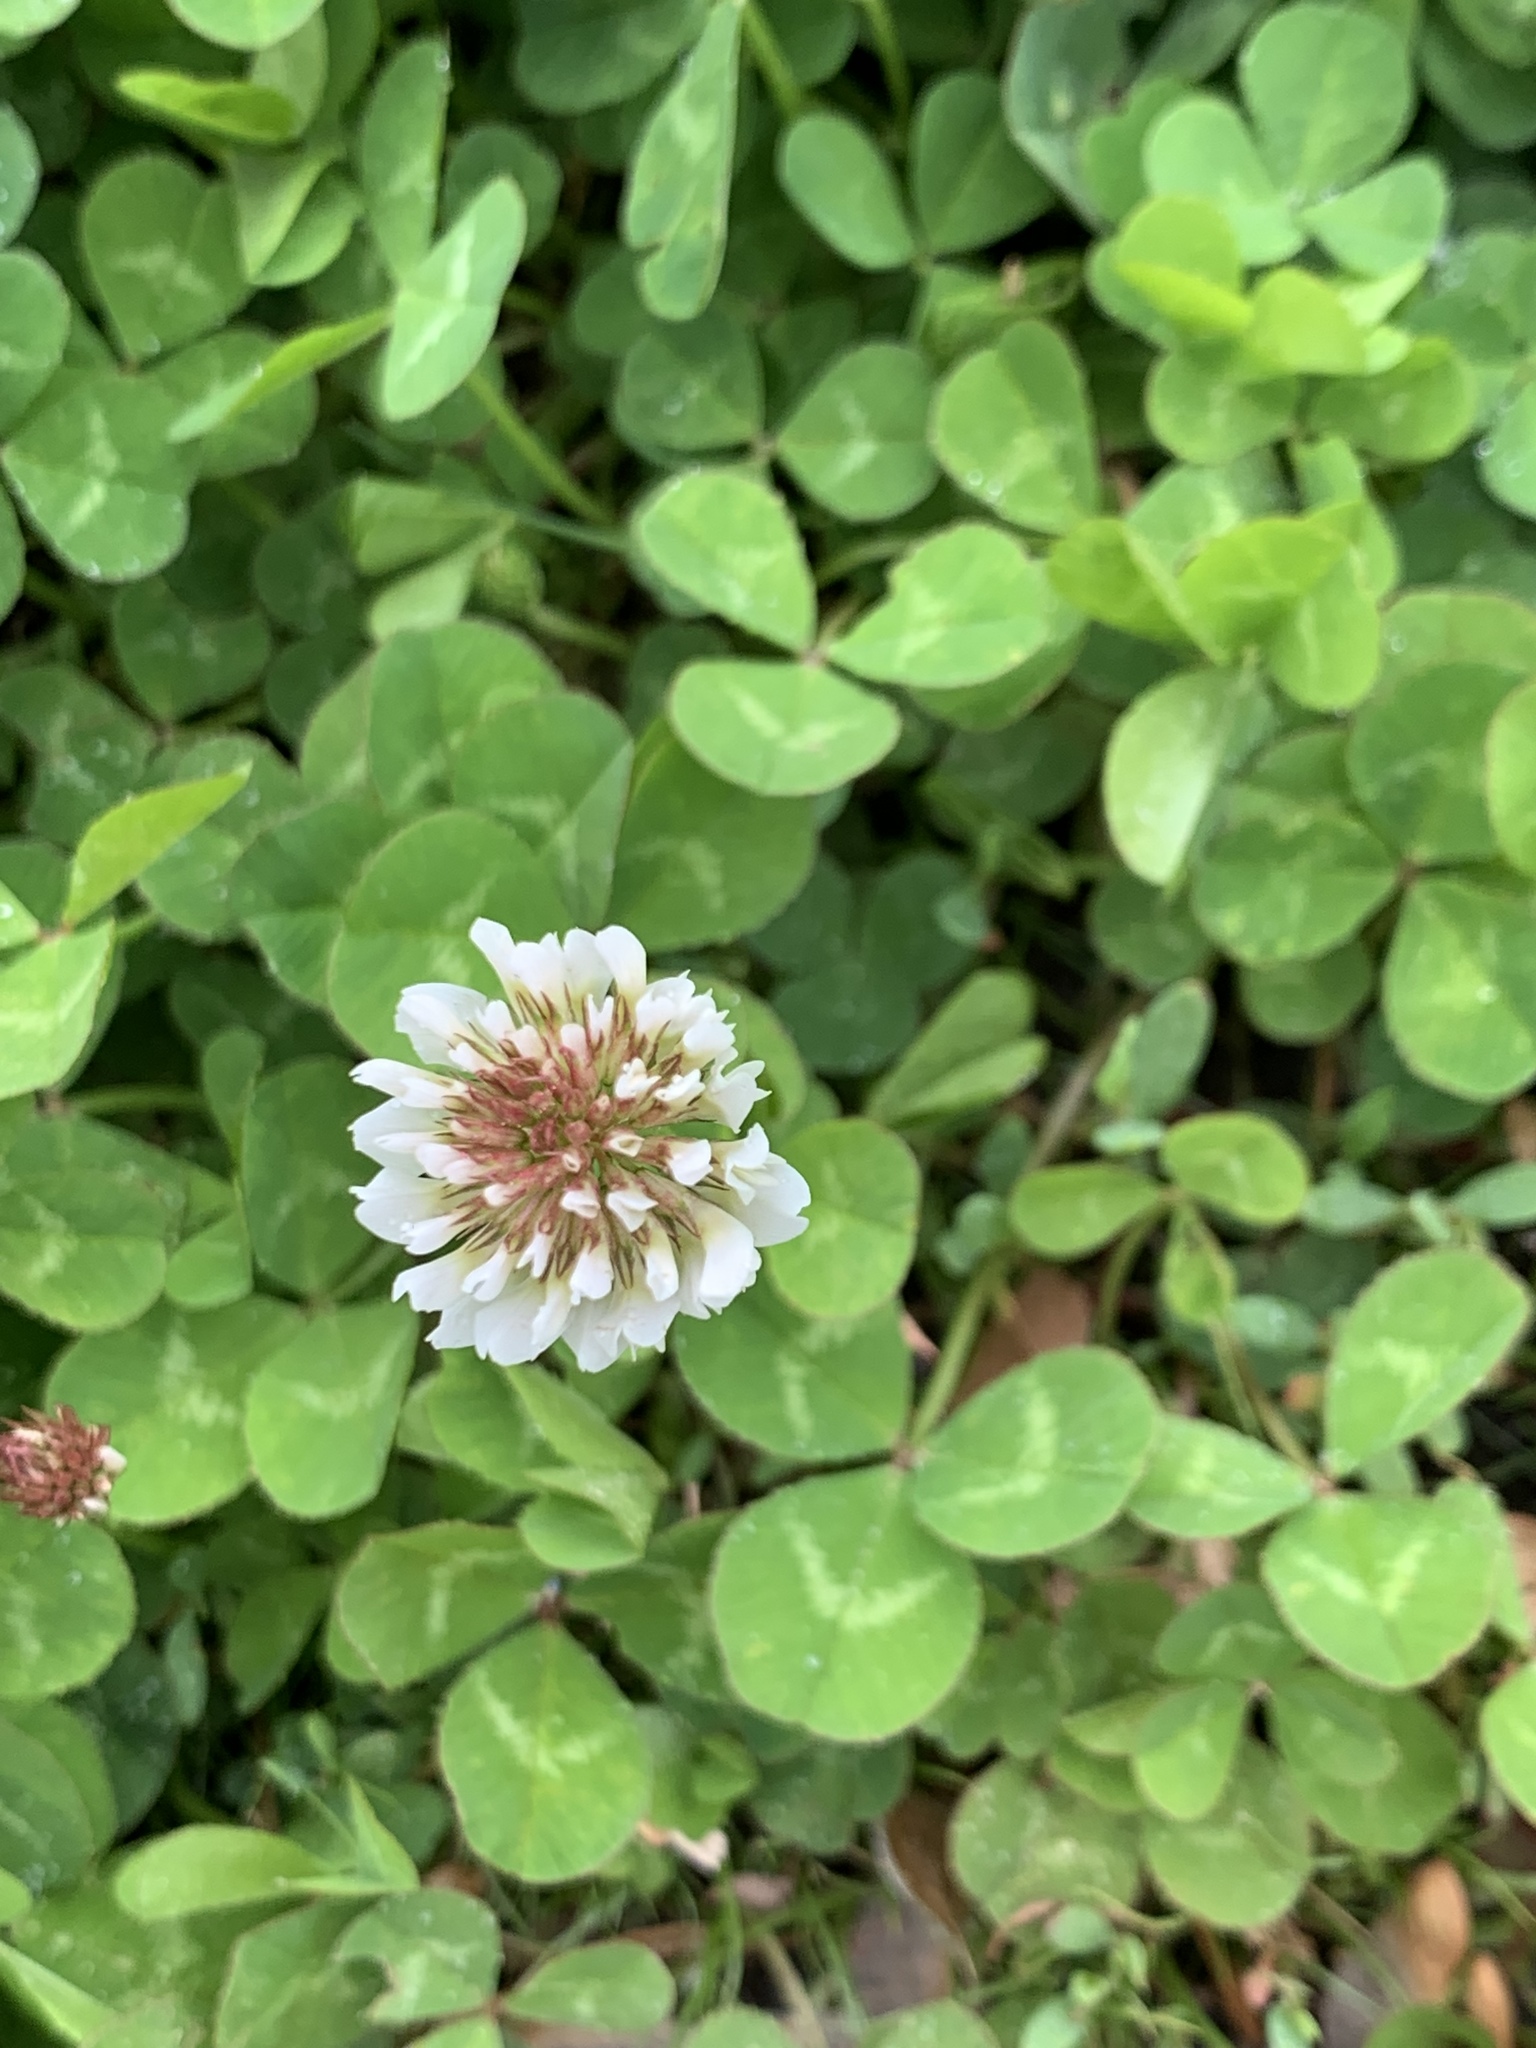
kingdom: Plantae
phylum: Tracheophyta
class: Magnoliopsida
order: Fabales
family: Fabaceae
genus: Trifolium
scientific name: Trifolium repens
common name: White clover
